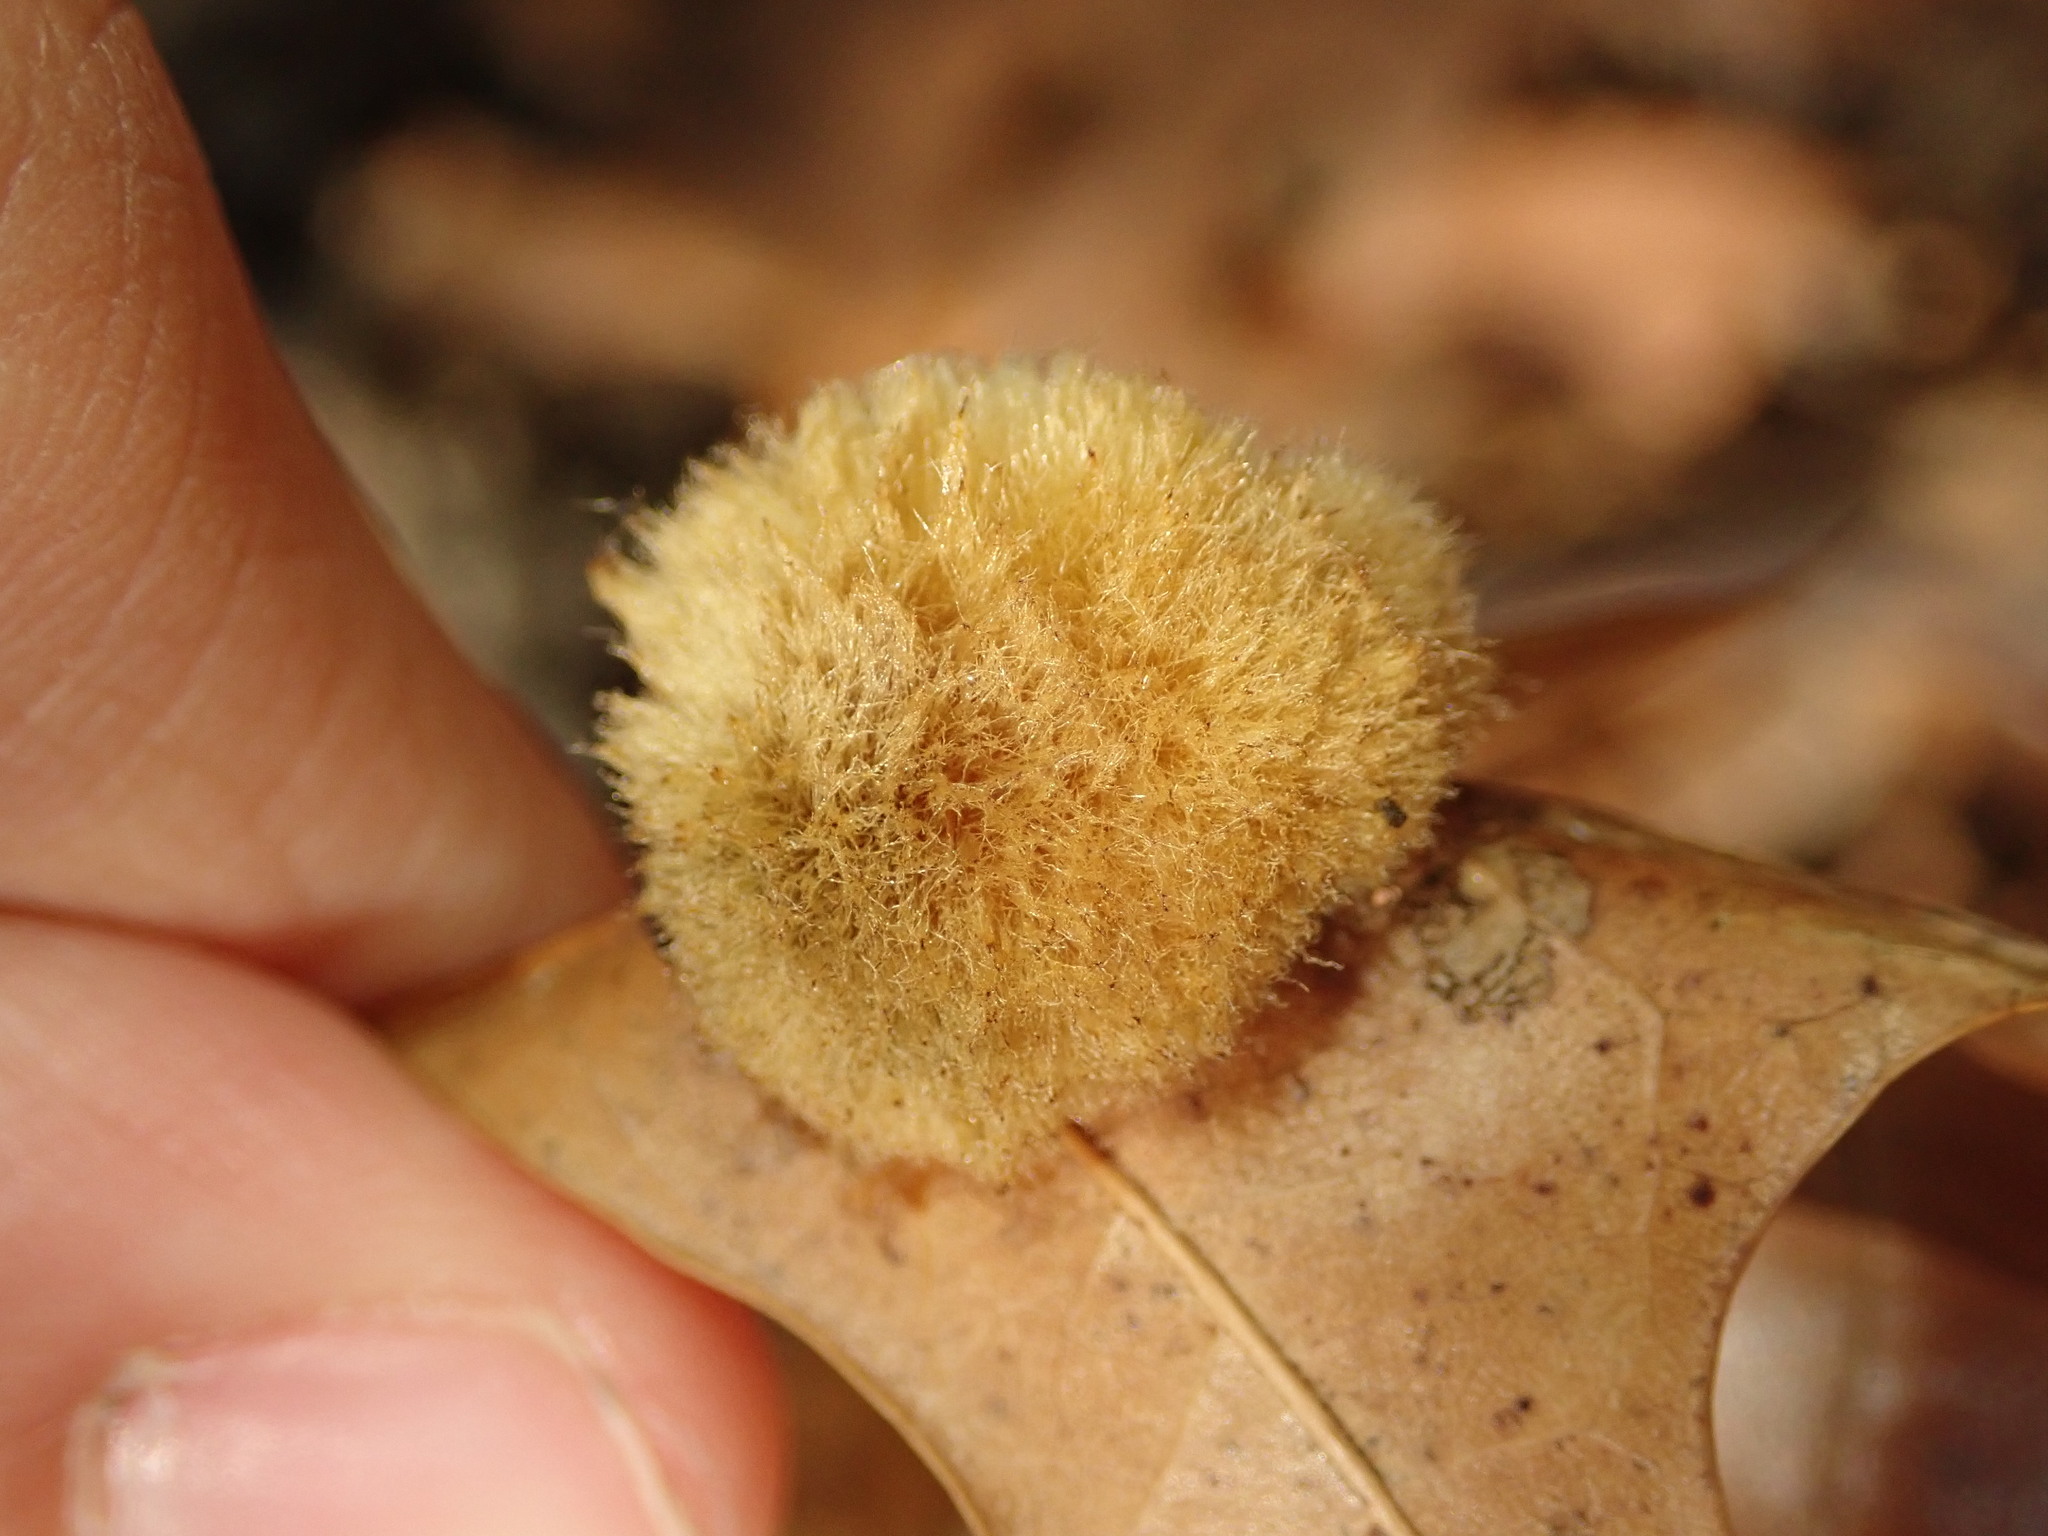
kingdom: Animalia
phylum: Arthropoda
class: Insecta
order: Hymenoptera
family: Cynipidae
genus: Callirhytis
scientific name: Callirhytis
